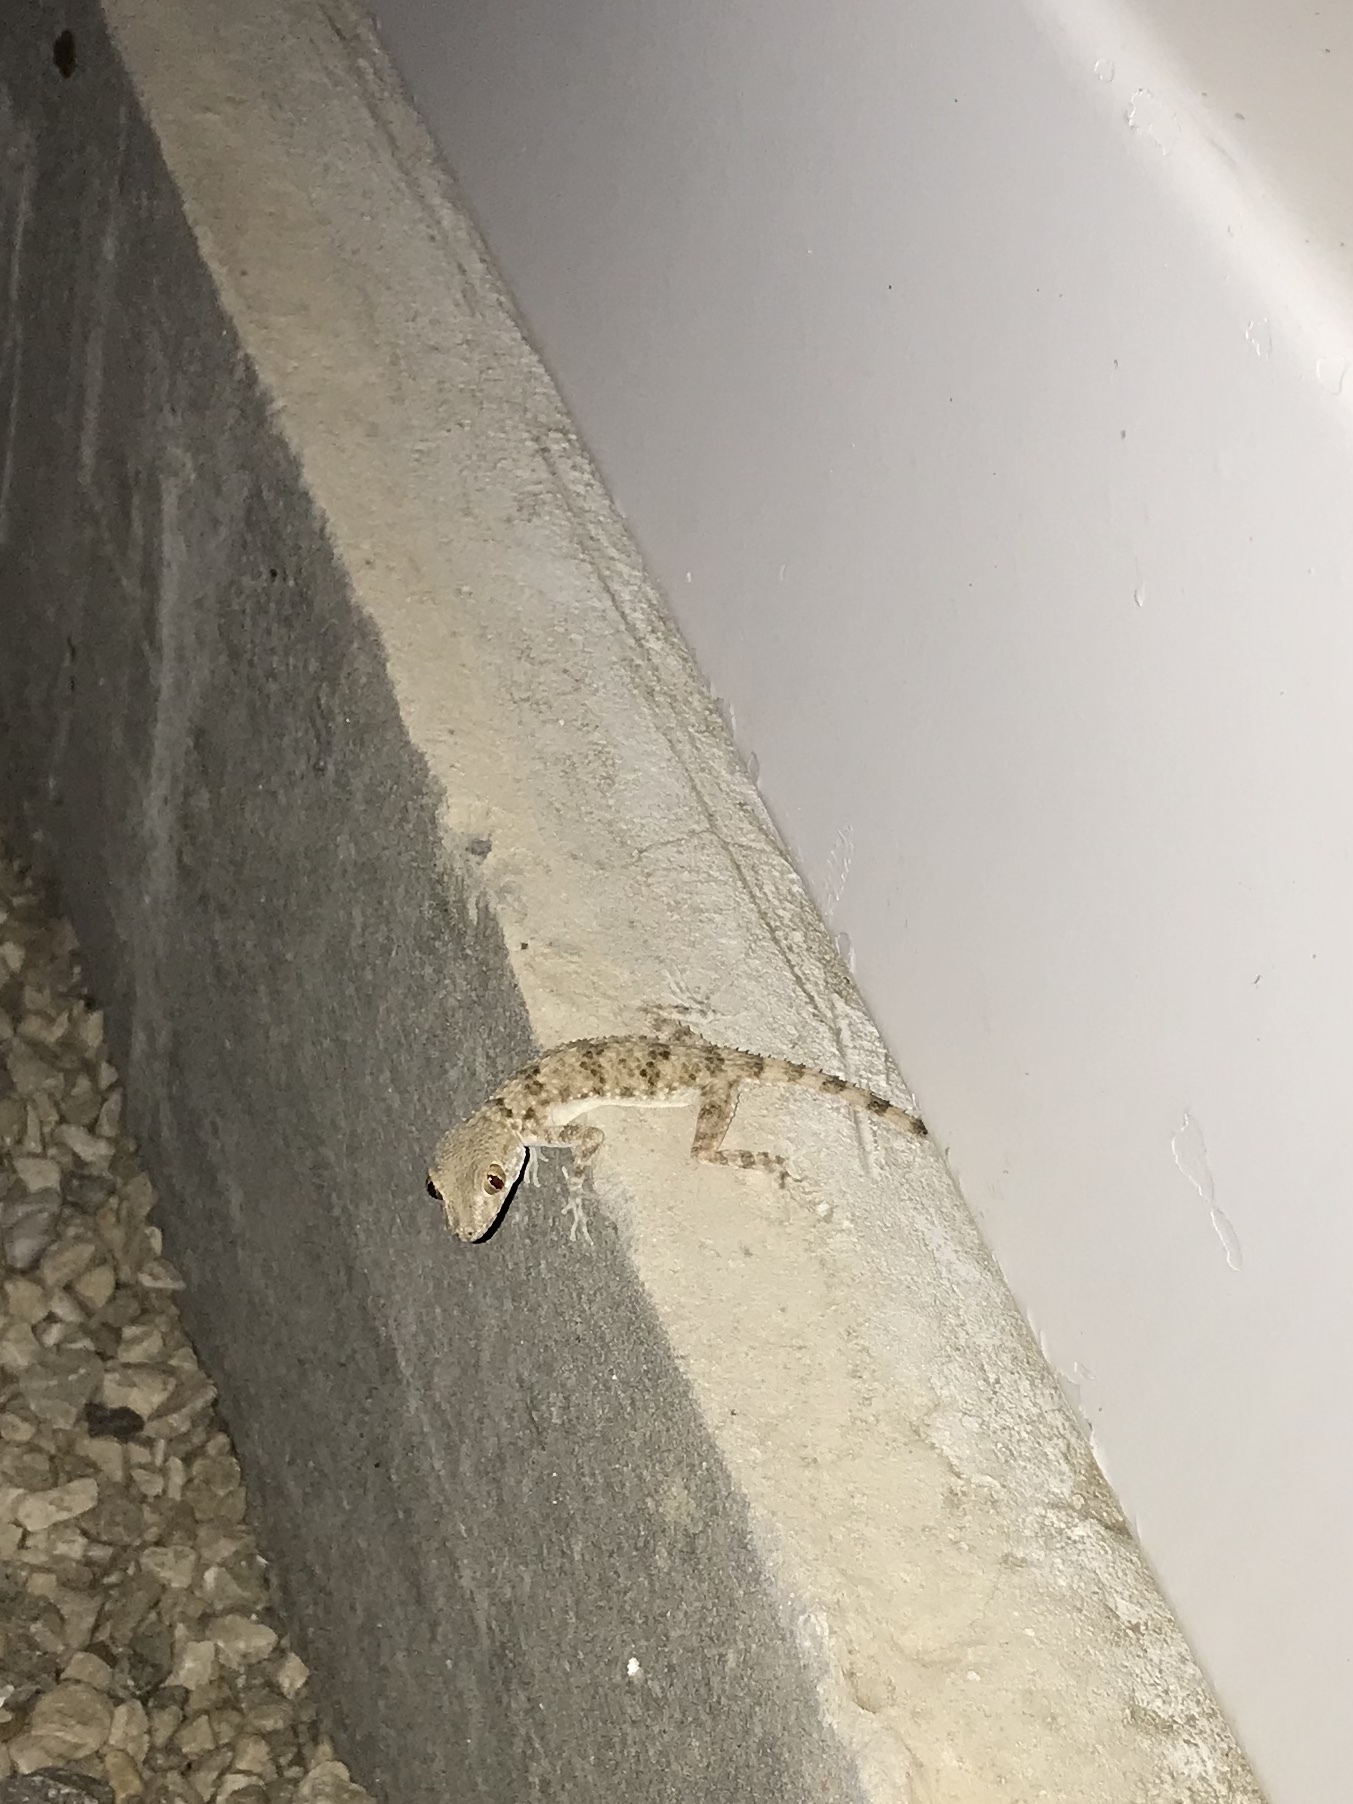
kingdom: Animalia
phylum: Chordata
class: Squamata
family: Gekkonidae
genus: Tenuidactylus
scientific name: Tenuidactylus caspius
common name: Caspian bent-toed gecko
